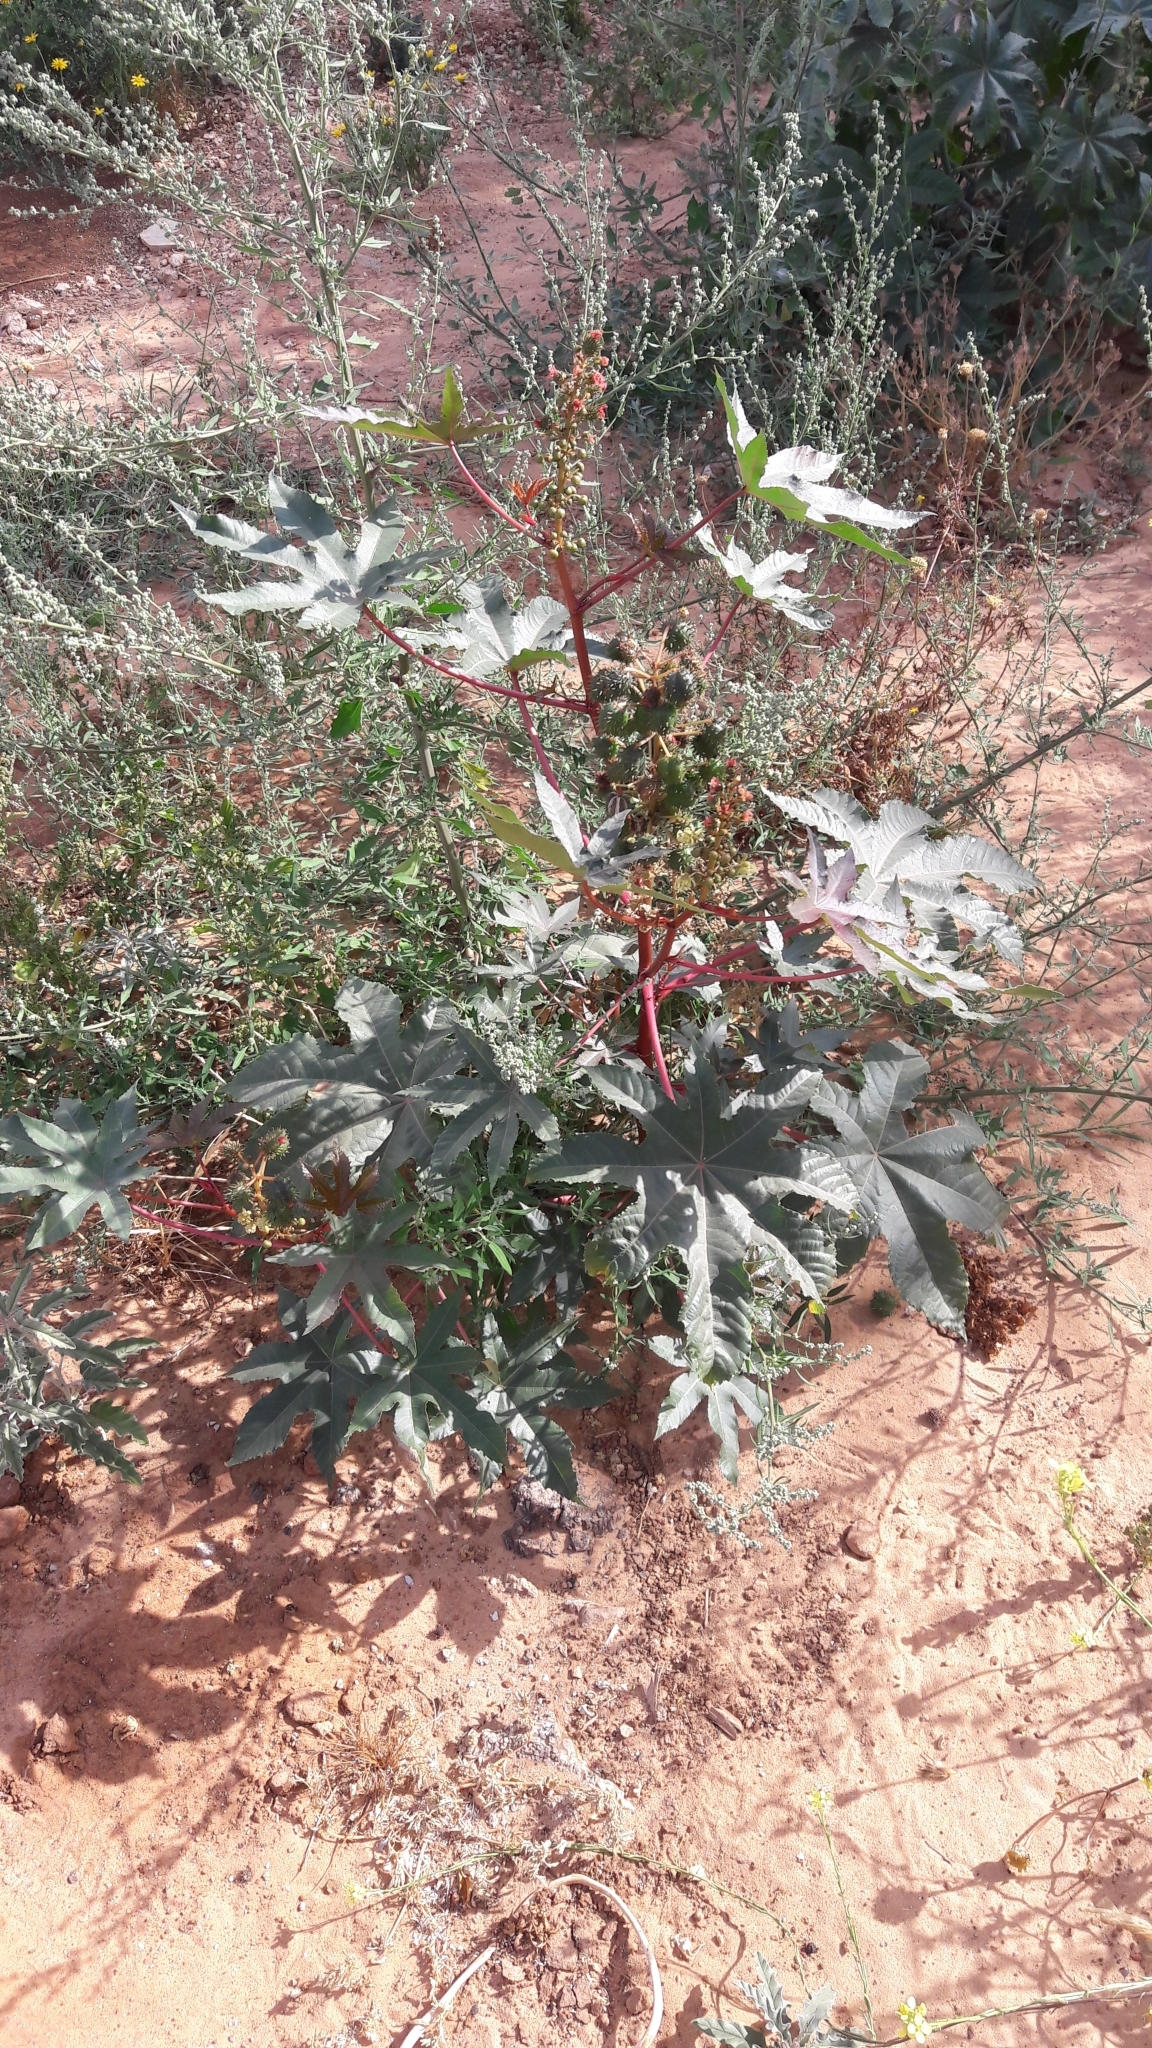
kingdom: Plantae
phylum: Tracheophyta
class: Magnoliopsida
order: Malpighiales
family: Euphorbiaceae
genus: Ricinus
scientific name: Ricinus communis
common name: Castor-oil-plant
